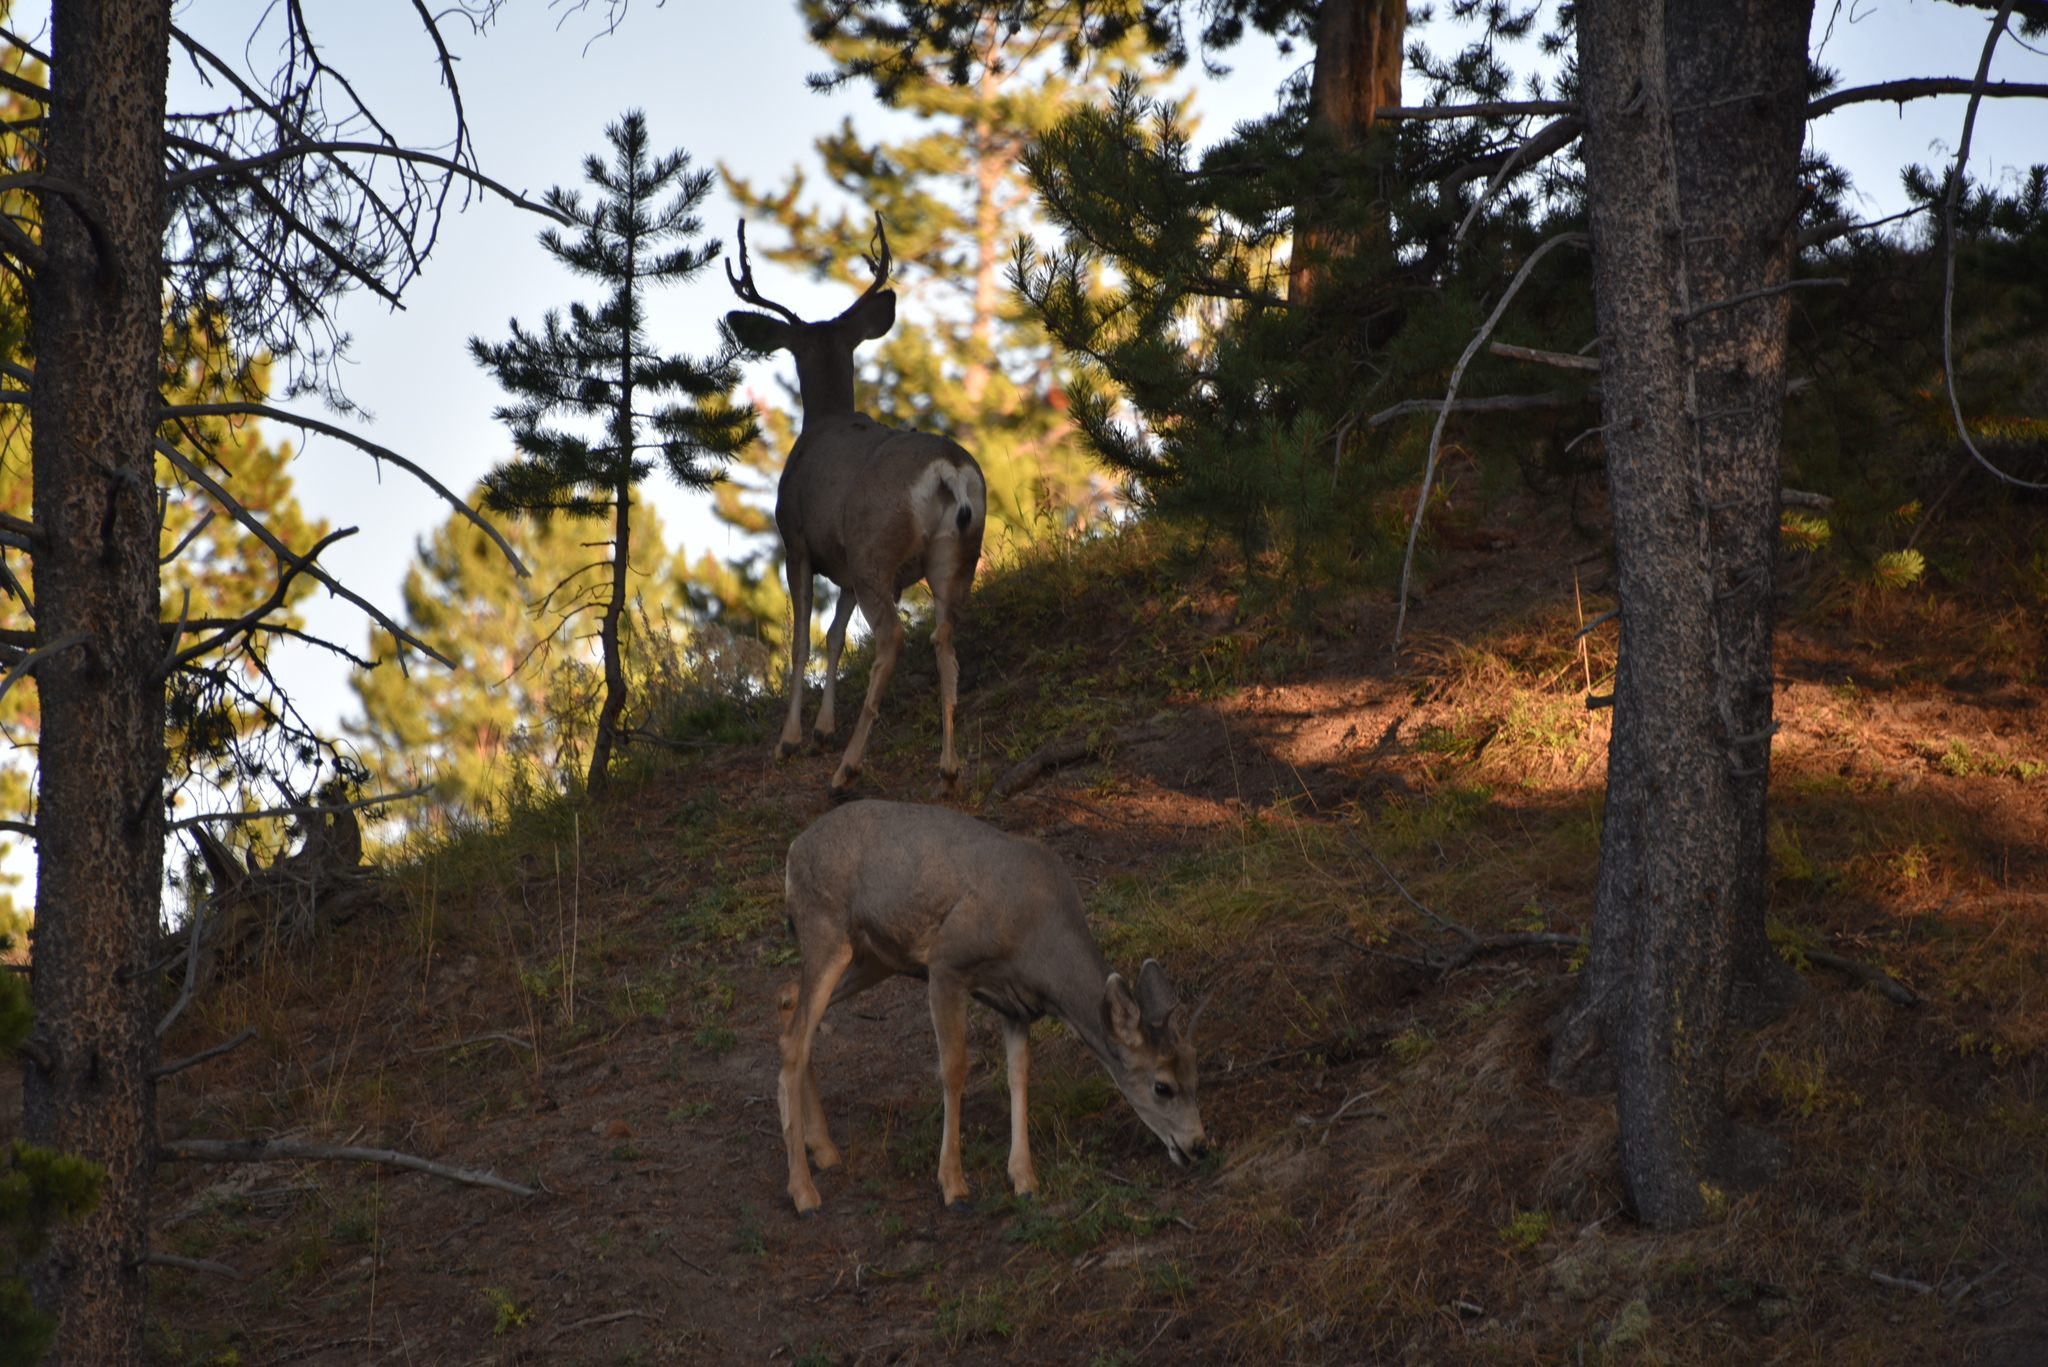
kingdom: Animalia
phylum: Chordata
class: Mammalia
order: Artiodactyla
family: Cervidae
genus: Odocoileus
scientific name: Odocoileus hemionus
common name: Mule deer
